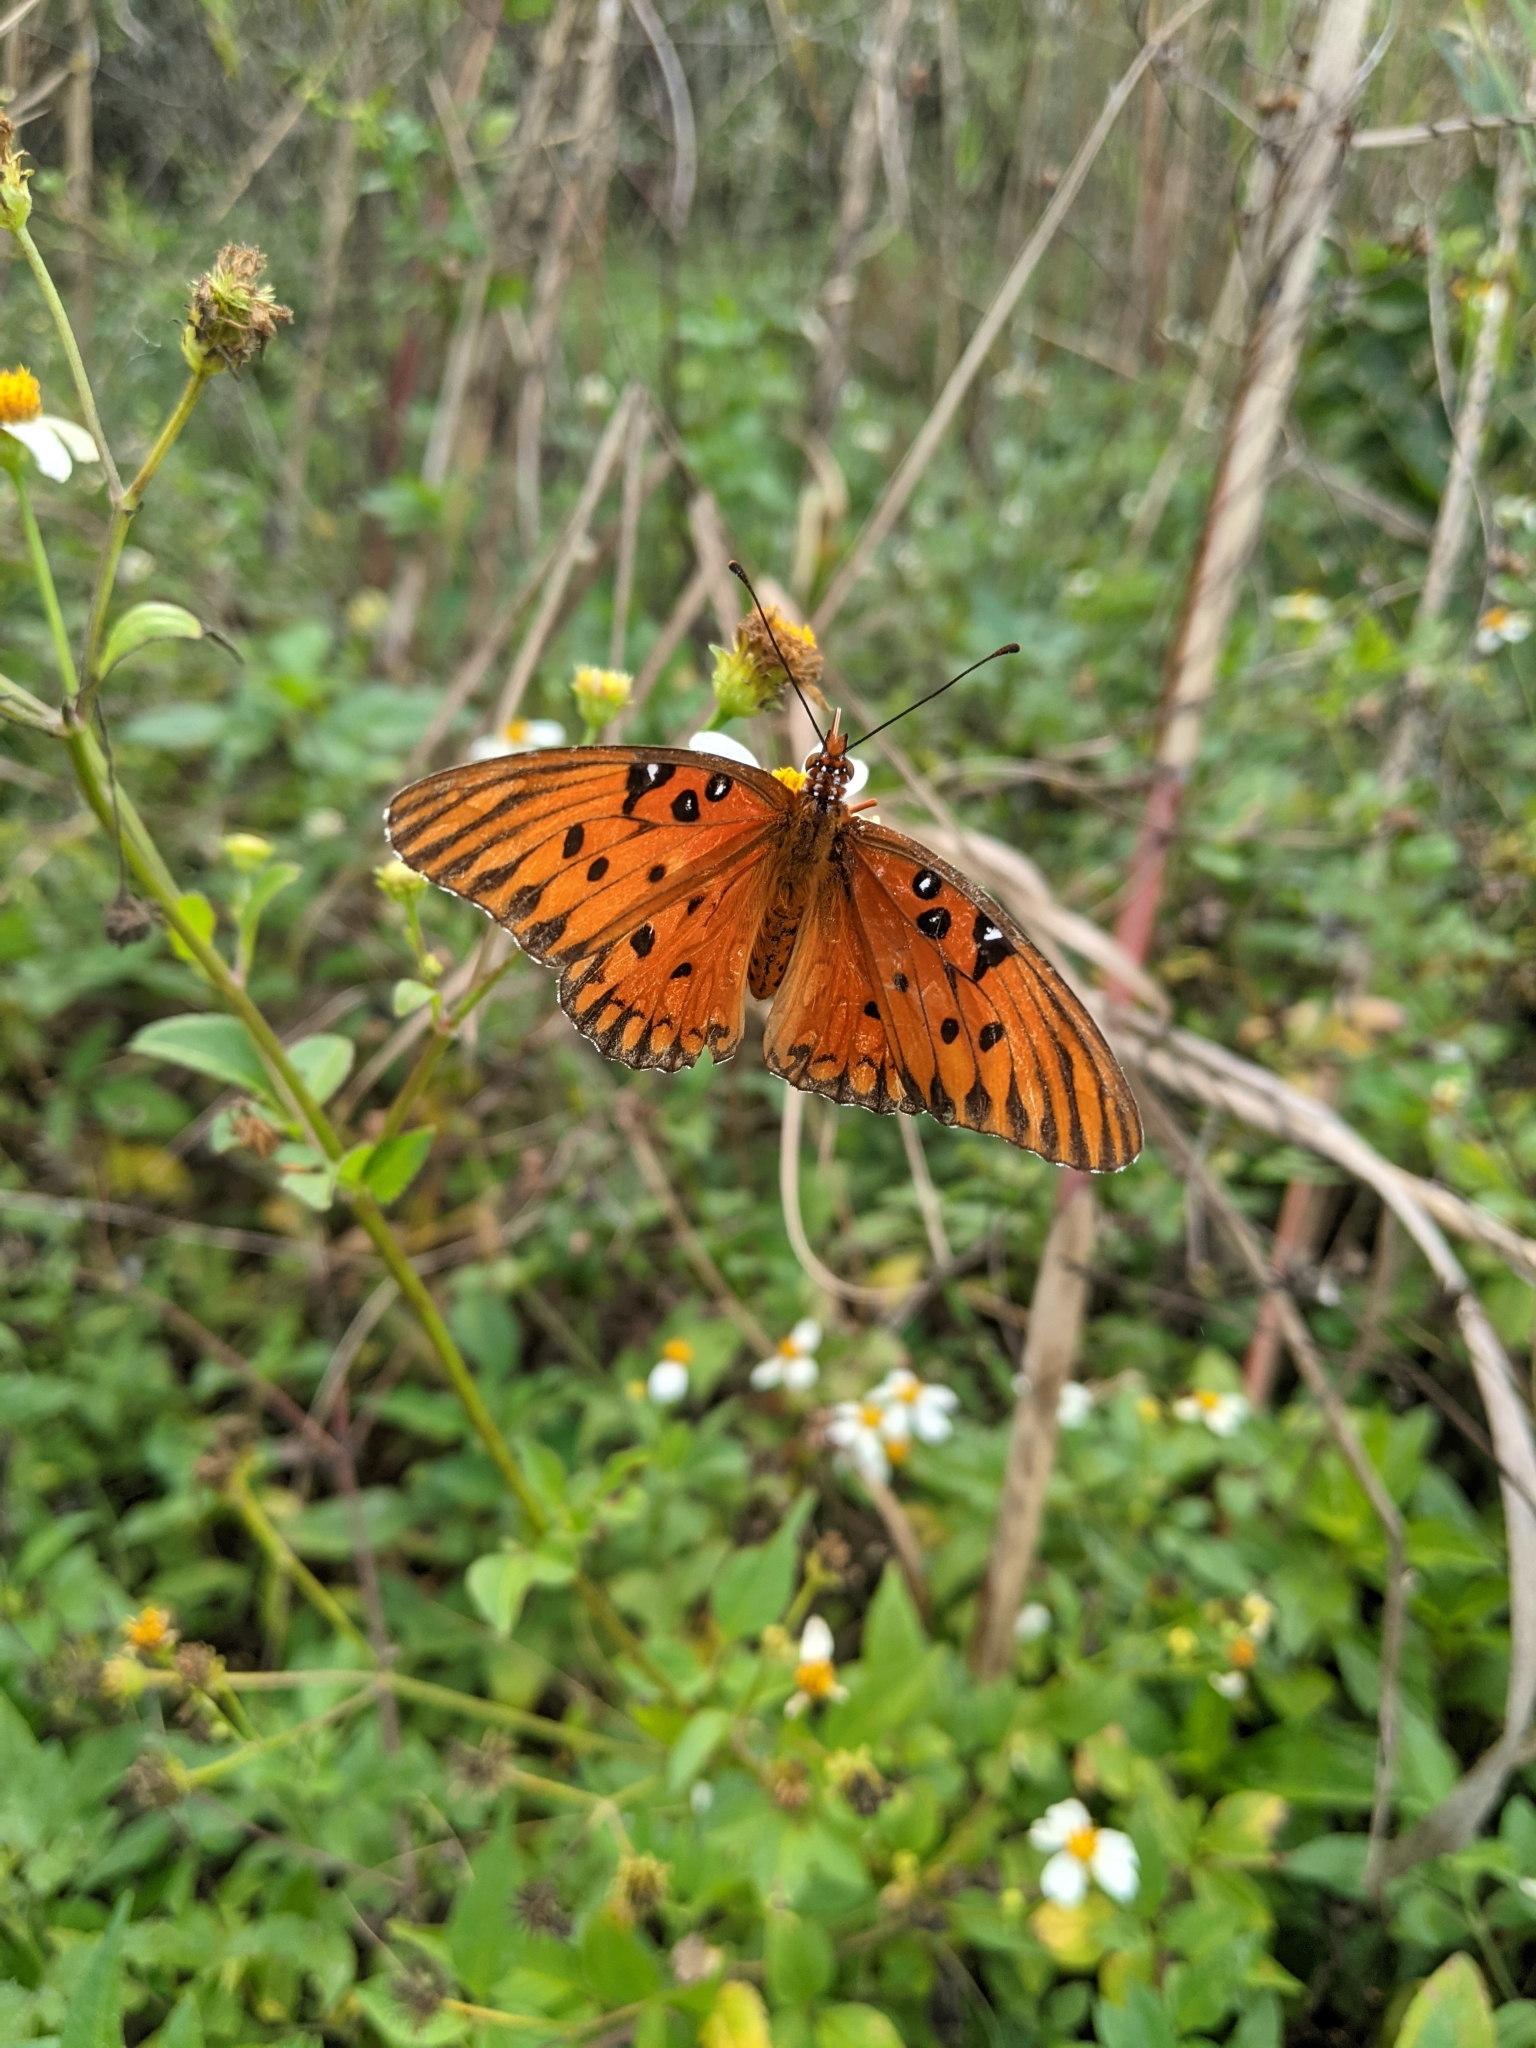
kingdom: Animalia
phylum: Arthropoda
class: Insecta
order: Lepidoptera
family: Nymphalidae
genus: Dione
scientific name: Dione vanillae
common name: Gulf fritillary
